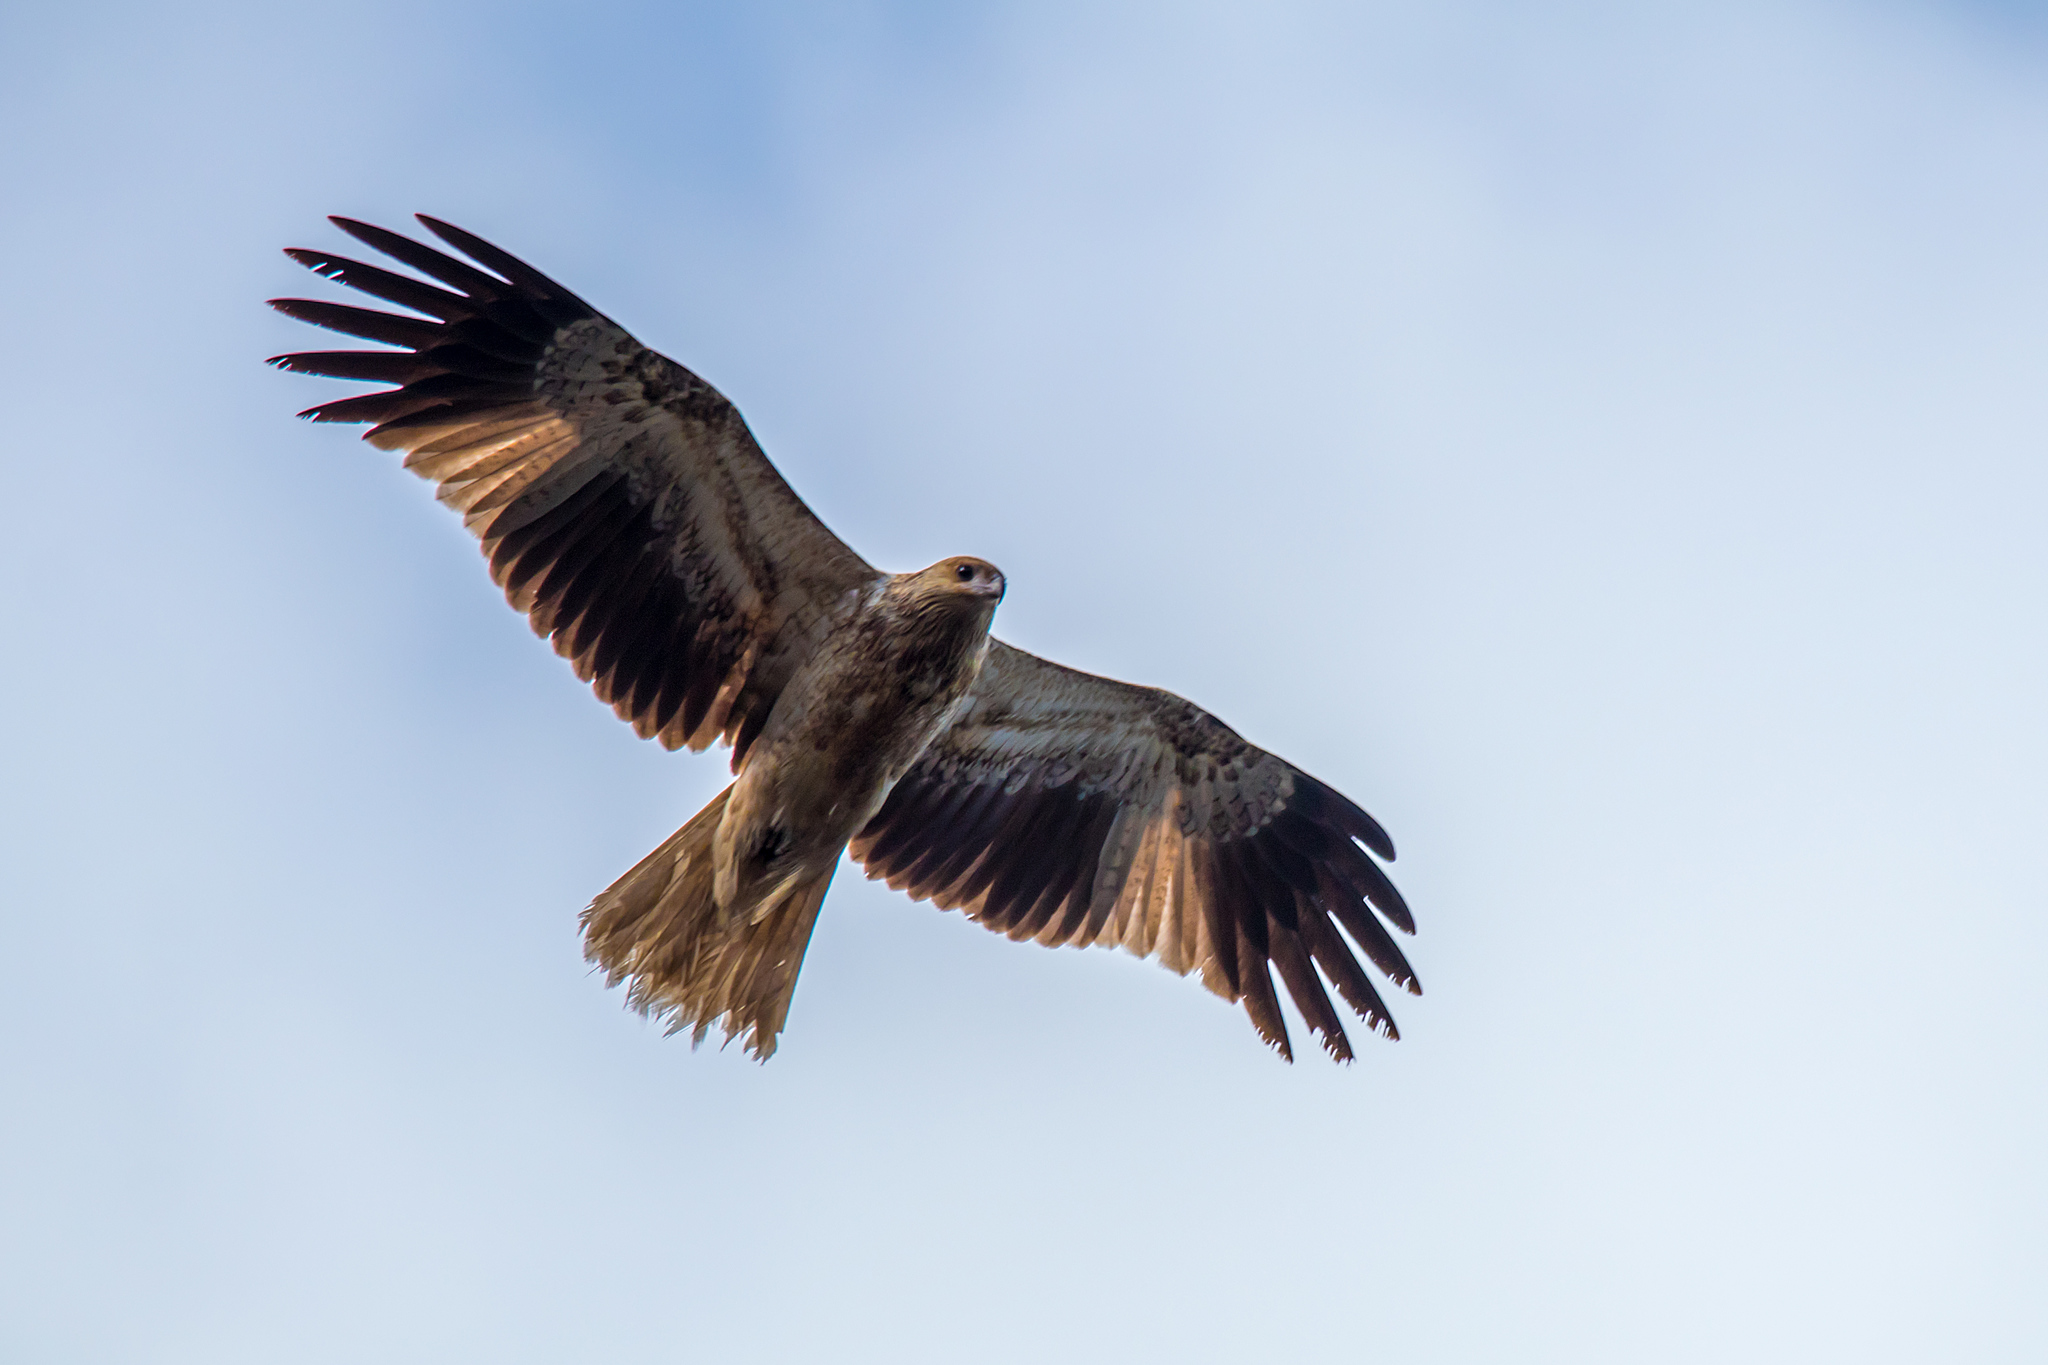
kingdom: Animalia
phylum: Chordata
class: Aves
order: Accipitriformes
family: Accipitridae
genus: Haliastur
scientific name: Haliastur sphenurus
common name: Whistling kite
